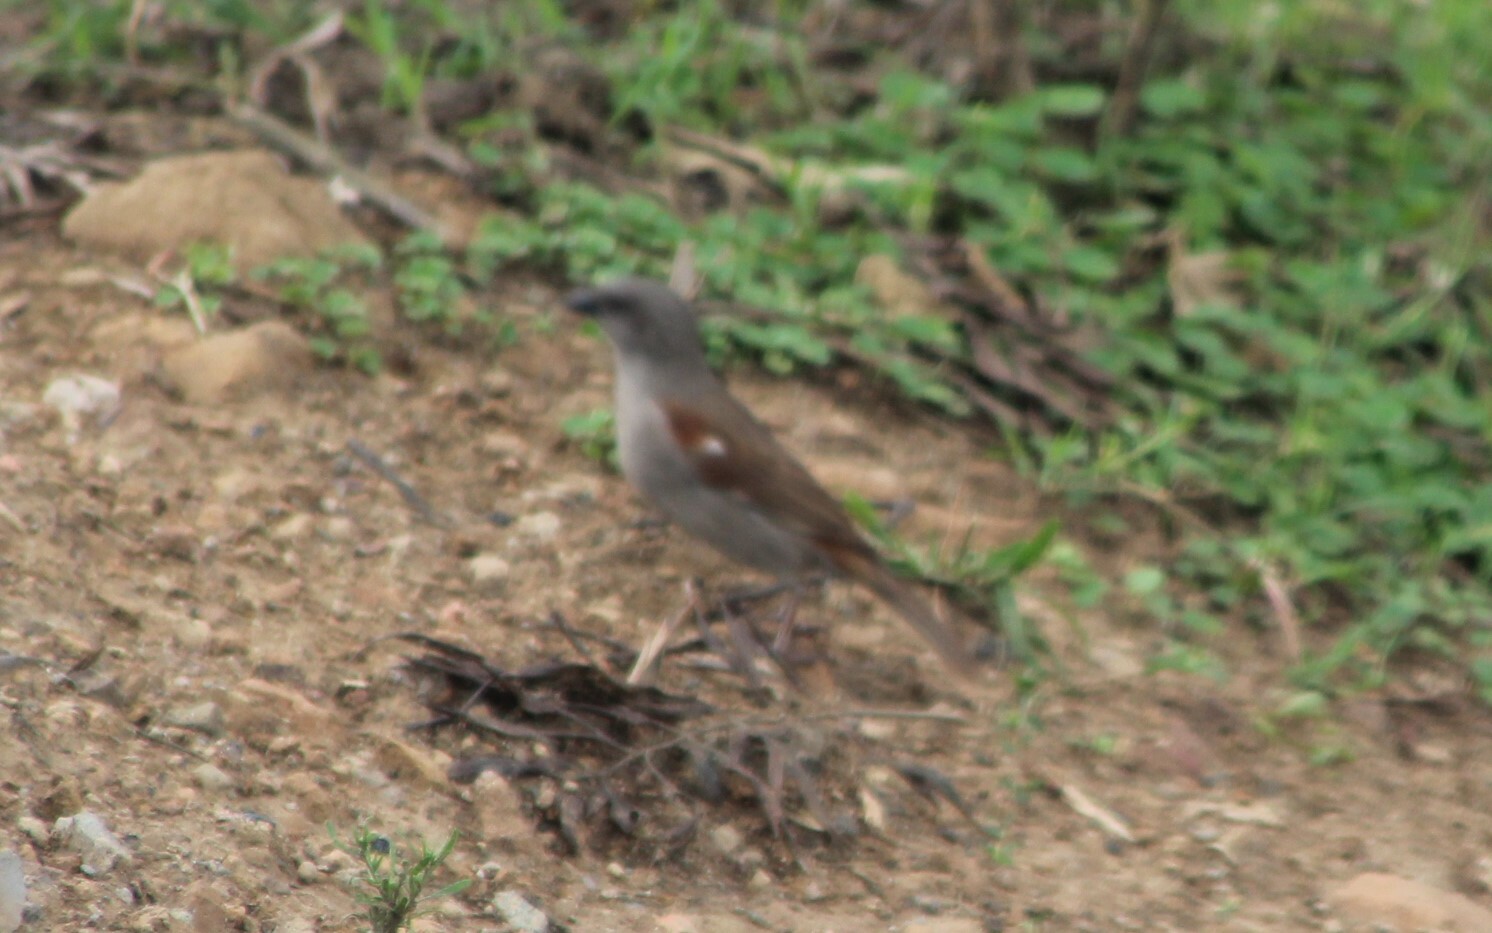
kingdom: Animalia
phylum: Chordata
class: Aves
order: Passeriformes
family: Passeridae
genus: Passer
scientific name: Passer griseus
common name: Northern grey-headed sparrow
